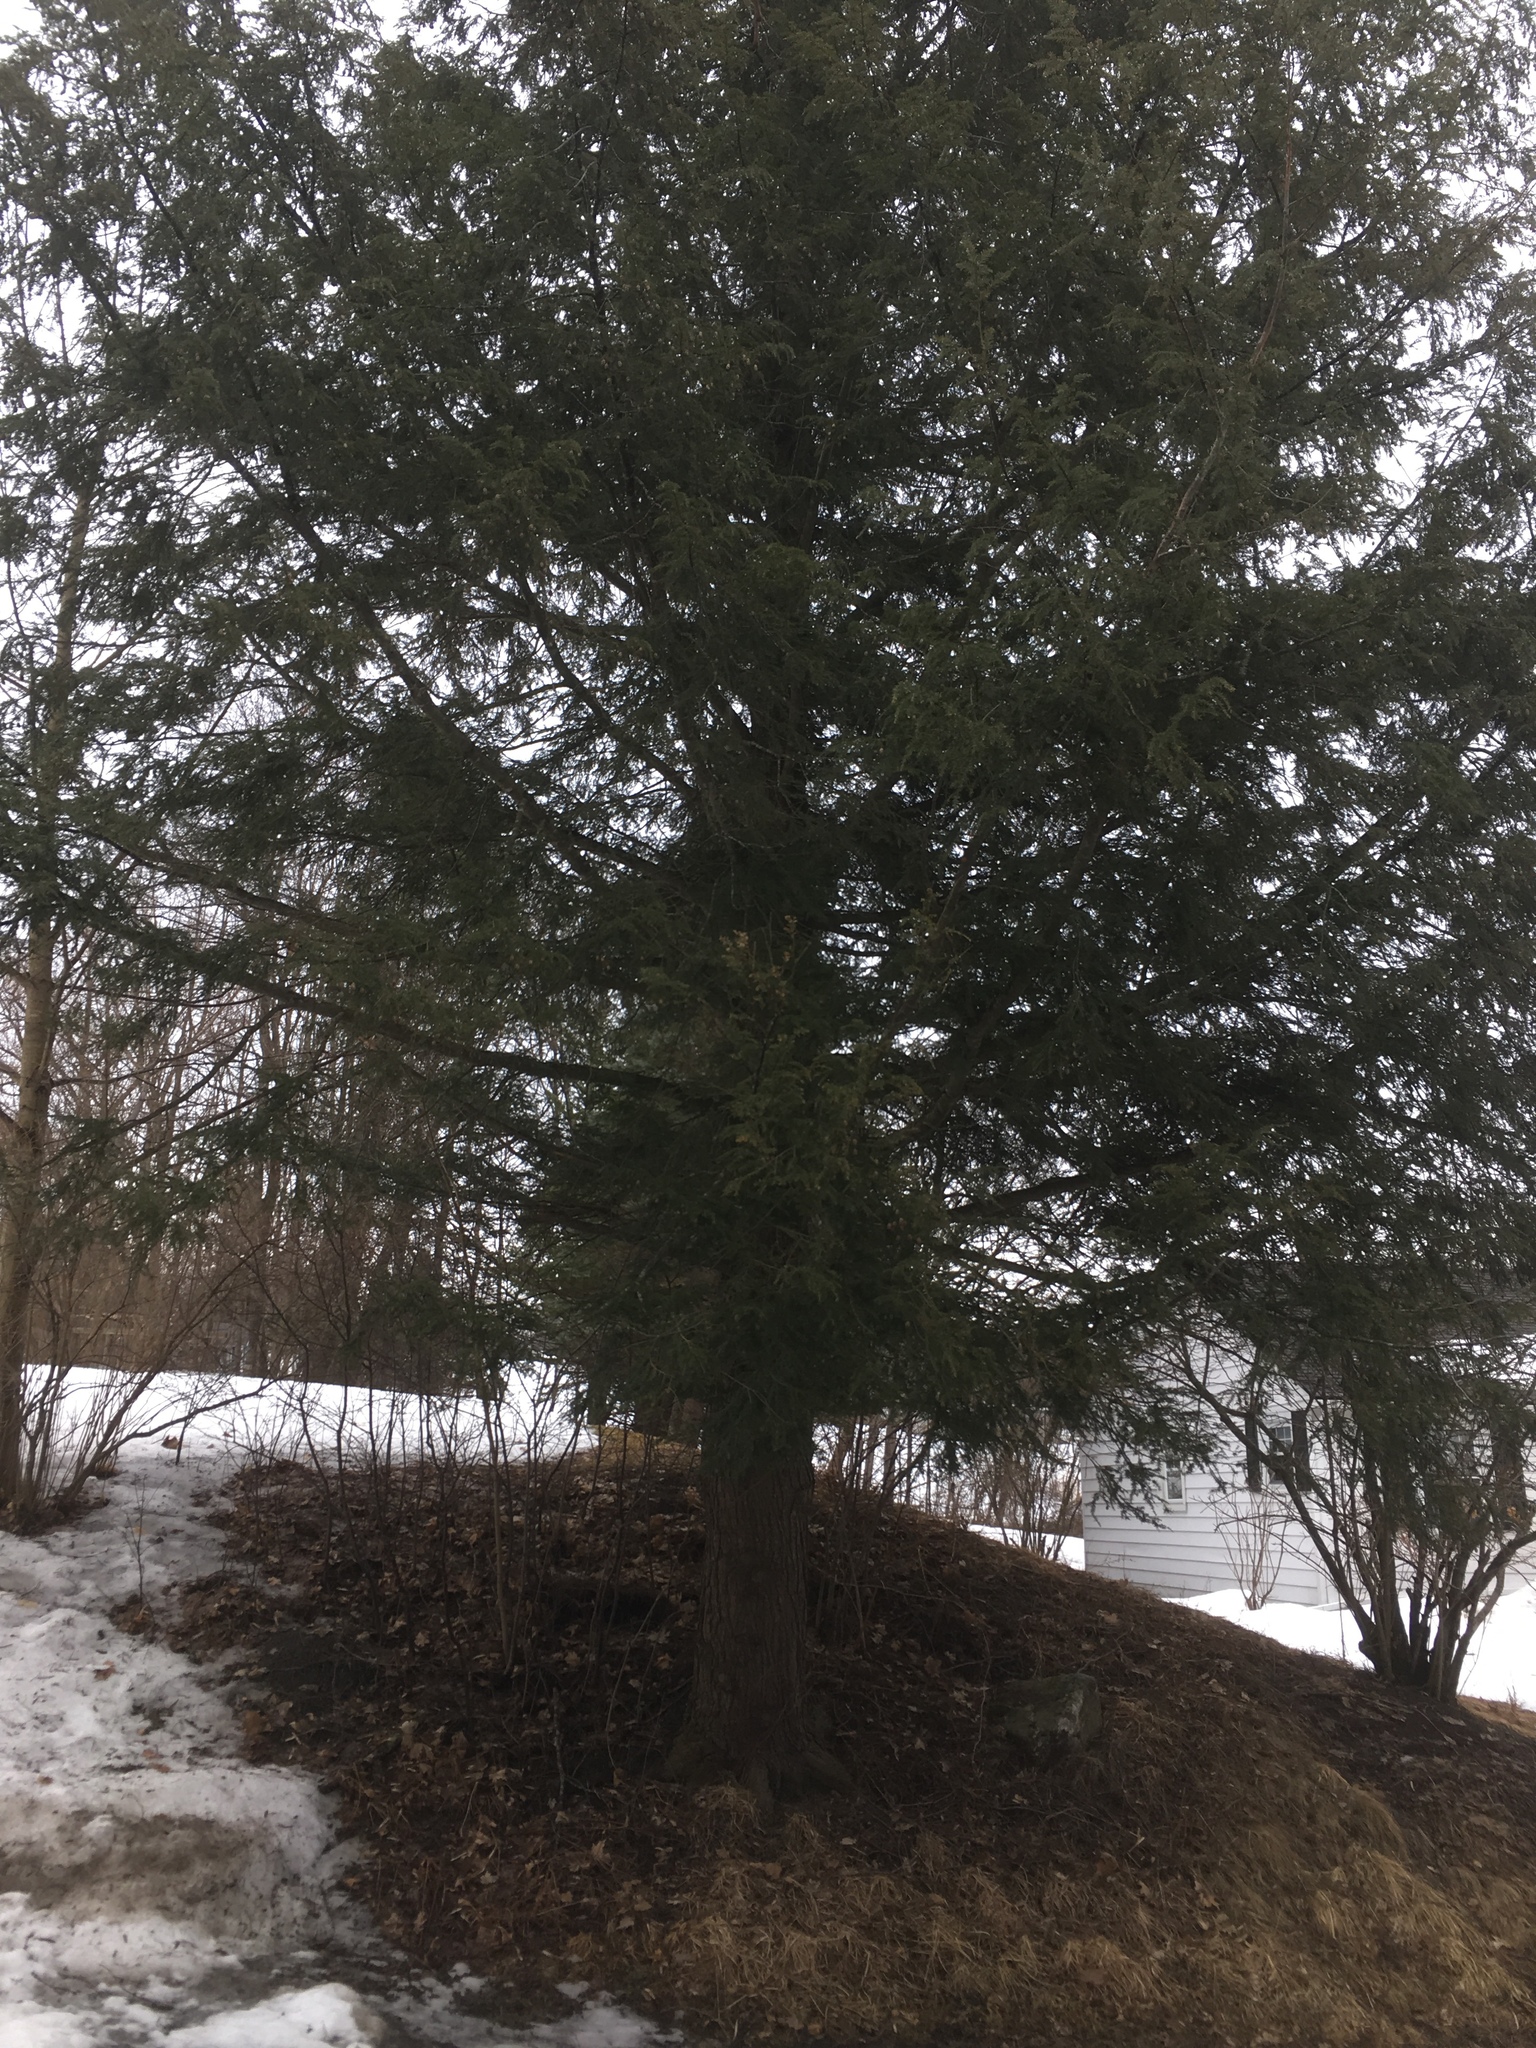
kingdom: Plantae
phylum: Tracheophyta
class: Pinopsida
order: Pinales
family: Pinaceae
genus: Tsuga
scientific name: Tsuga canadensis
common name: Eastern hemlock
